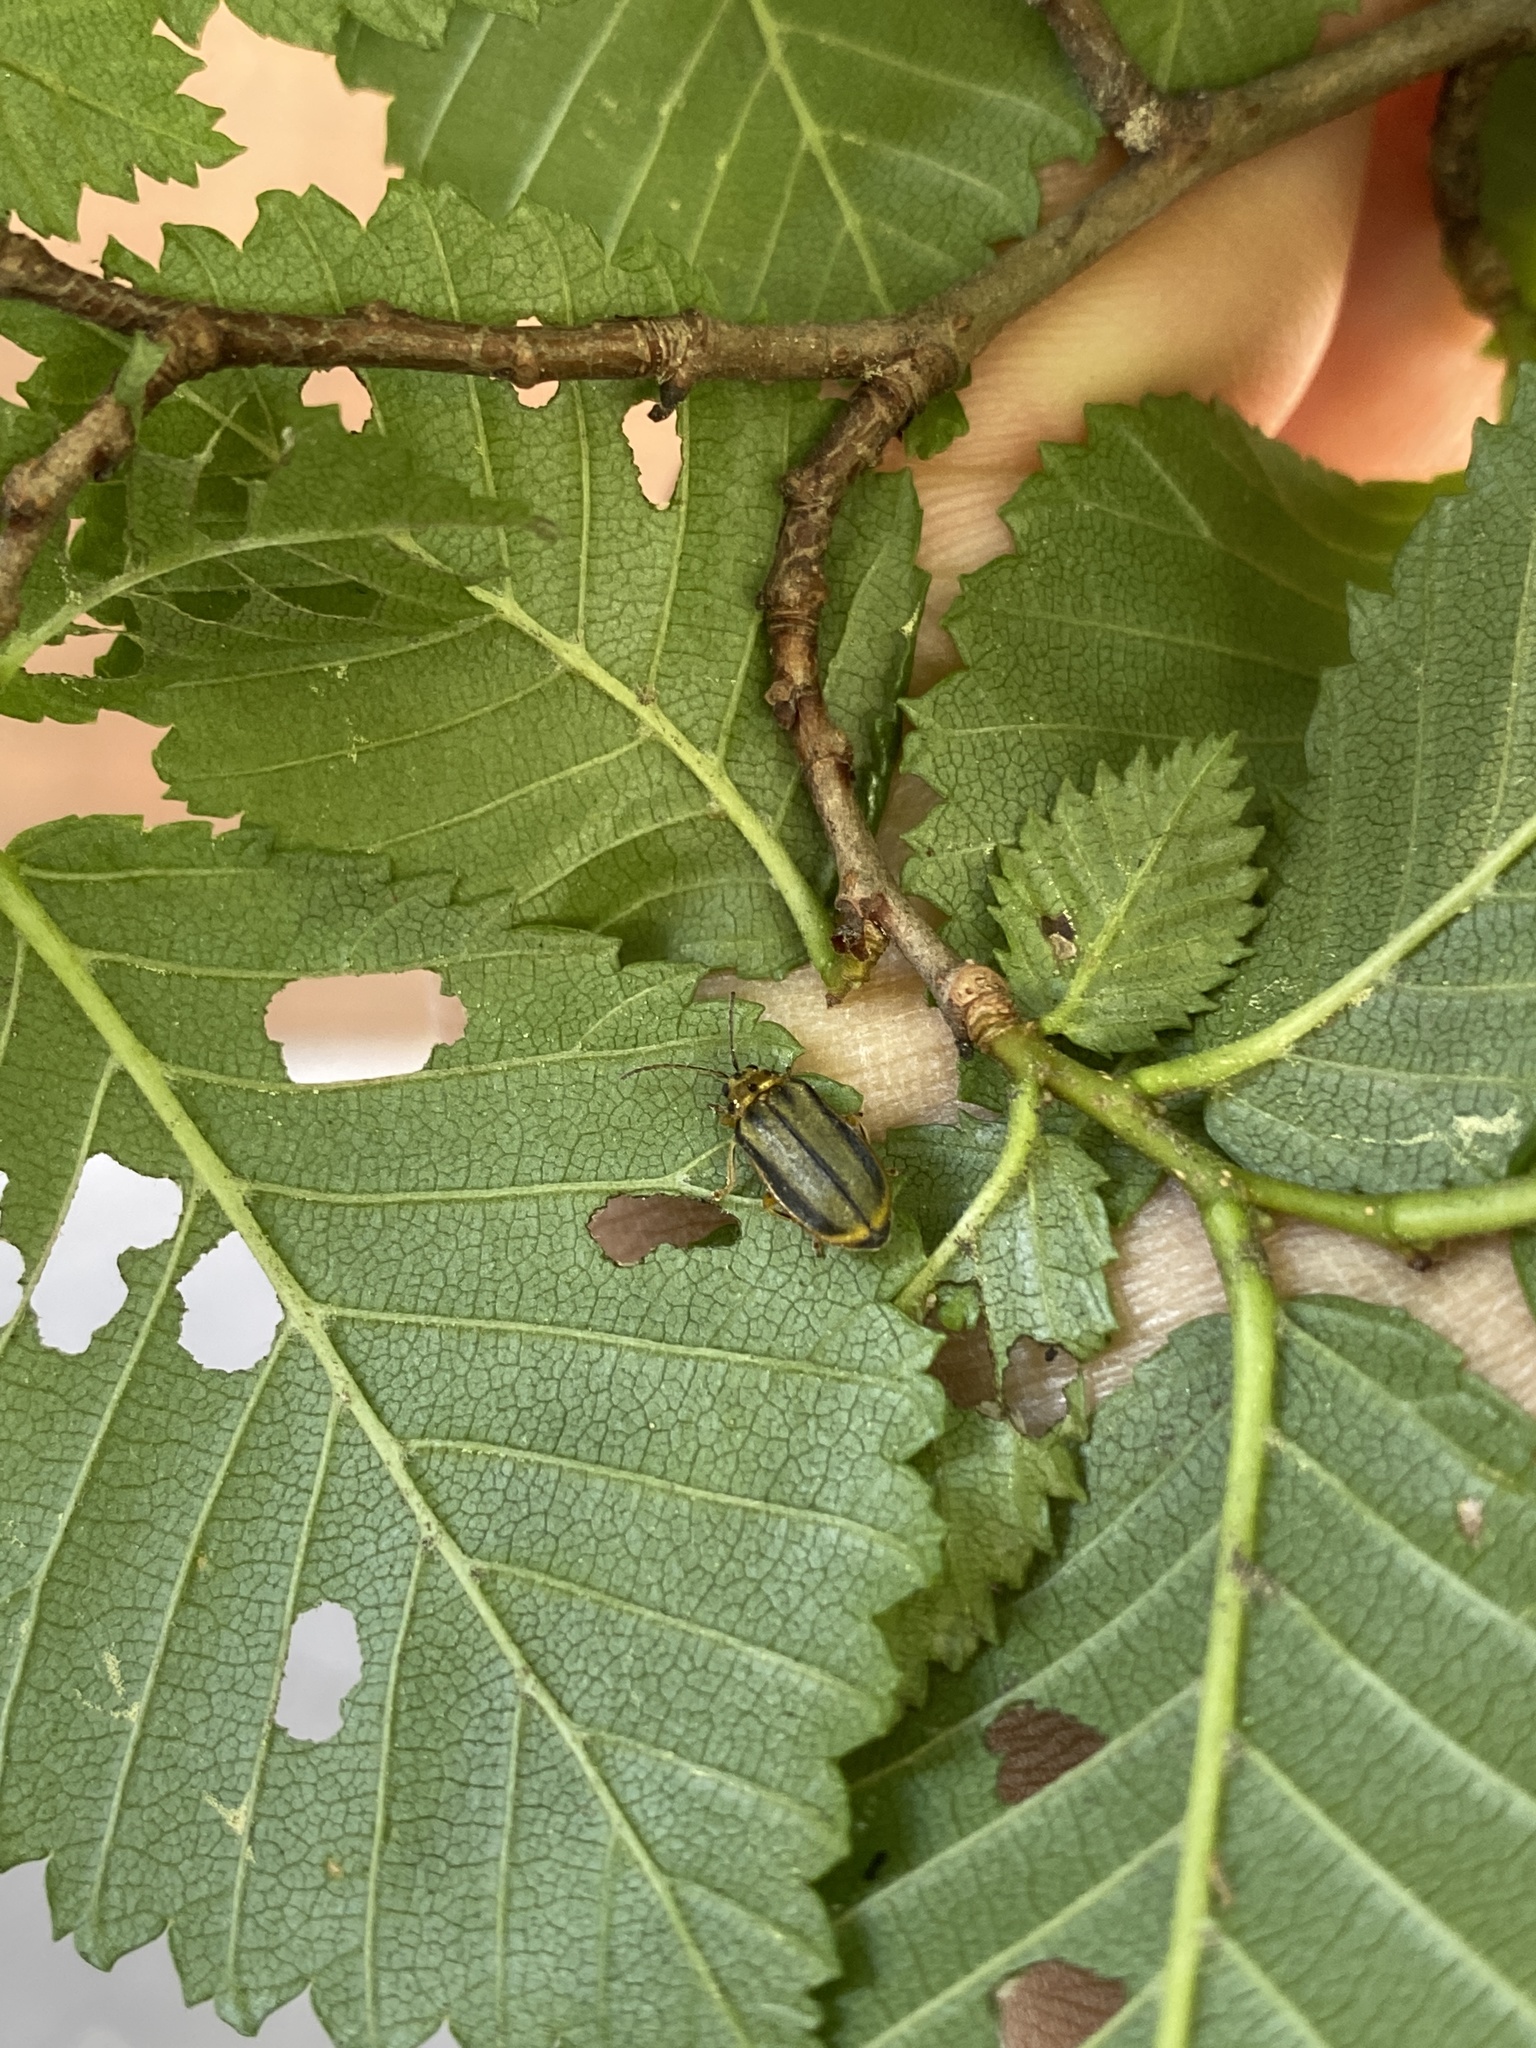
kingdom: Animalia
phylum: Arthropoda
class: Insecta
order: Coleoptera
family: Chrysomelidae
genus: Xanthogaleruca
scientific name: Xanthogaleruca luteola
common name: Elm leaf beetle
